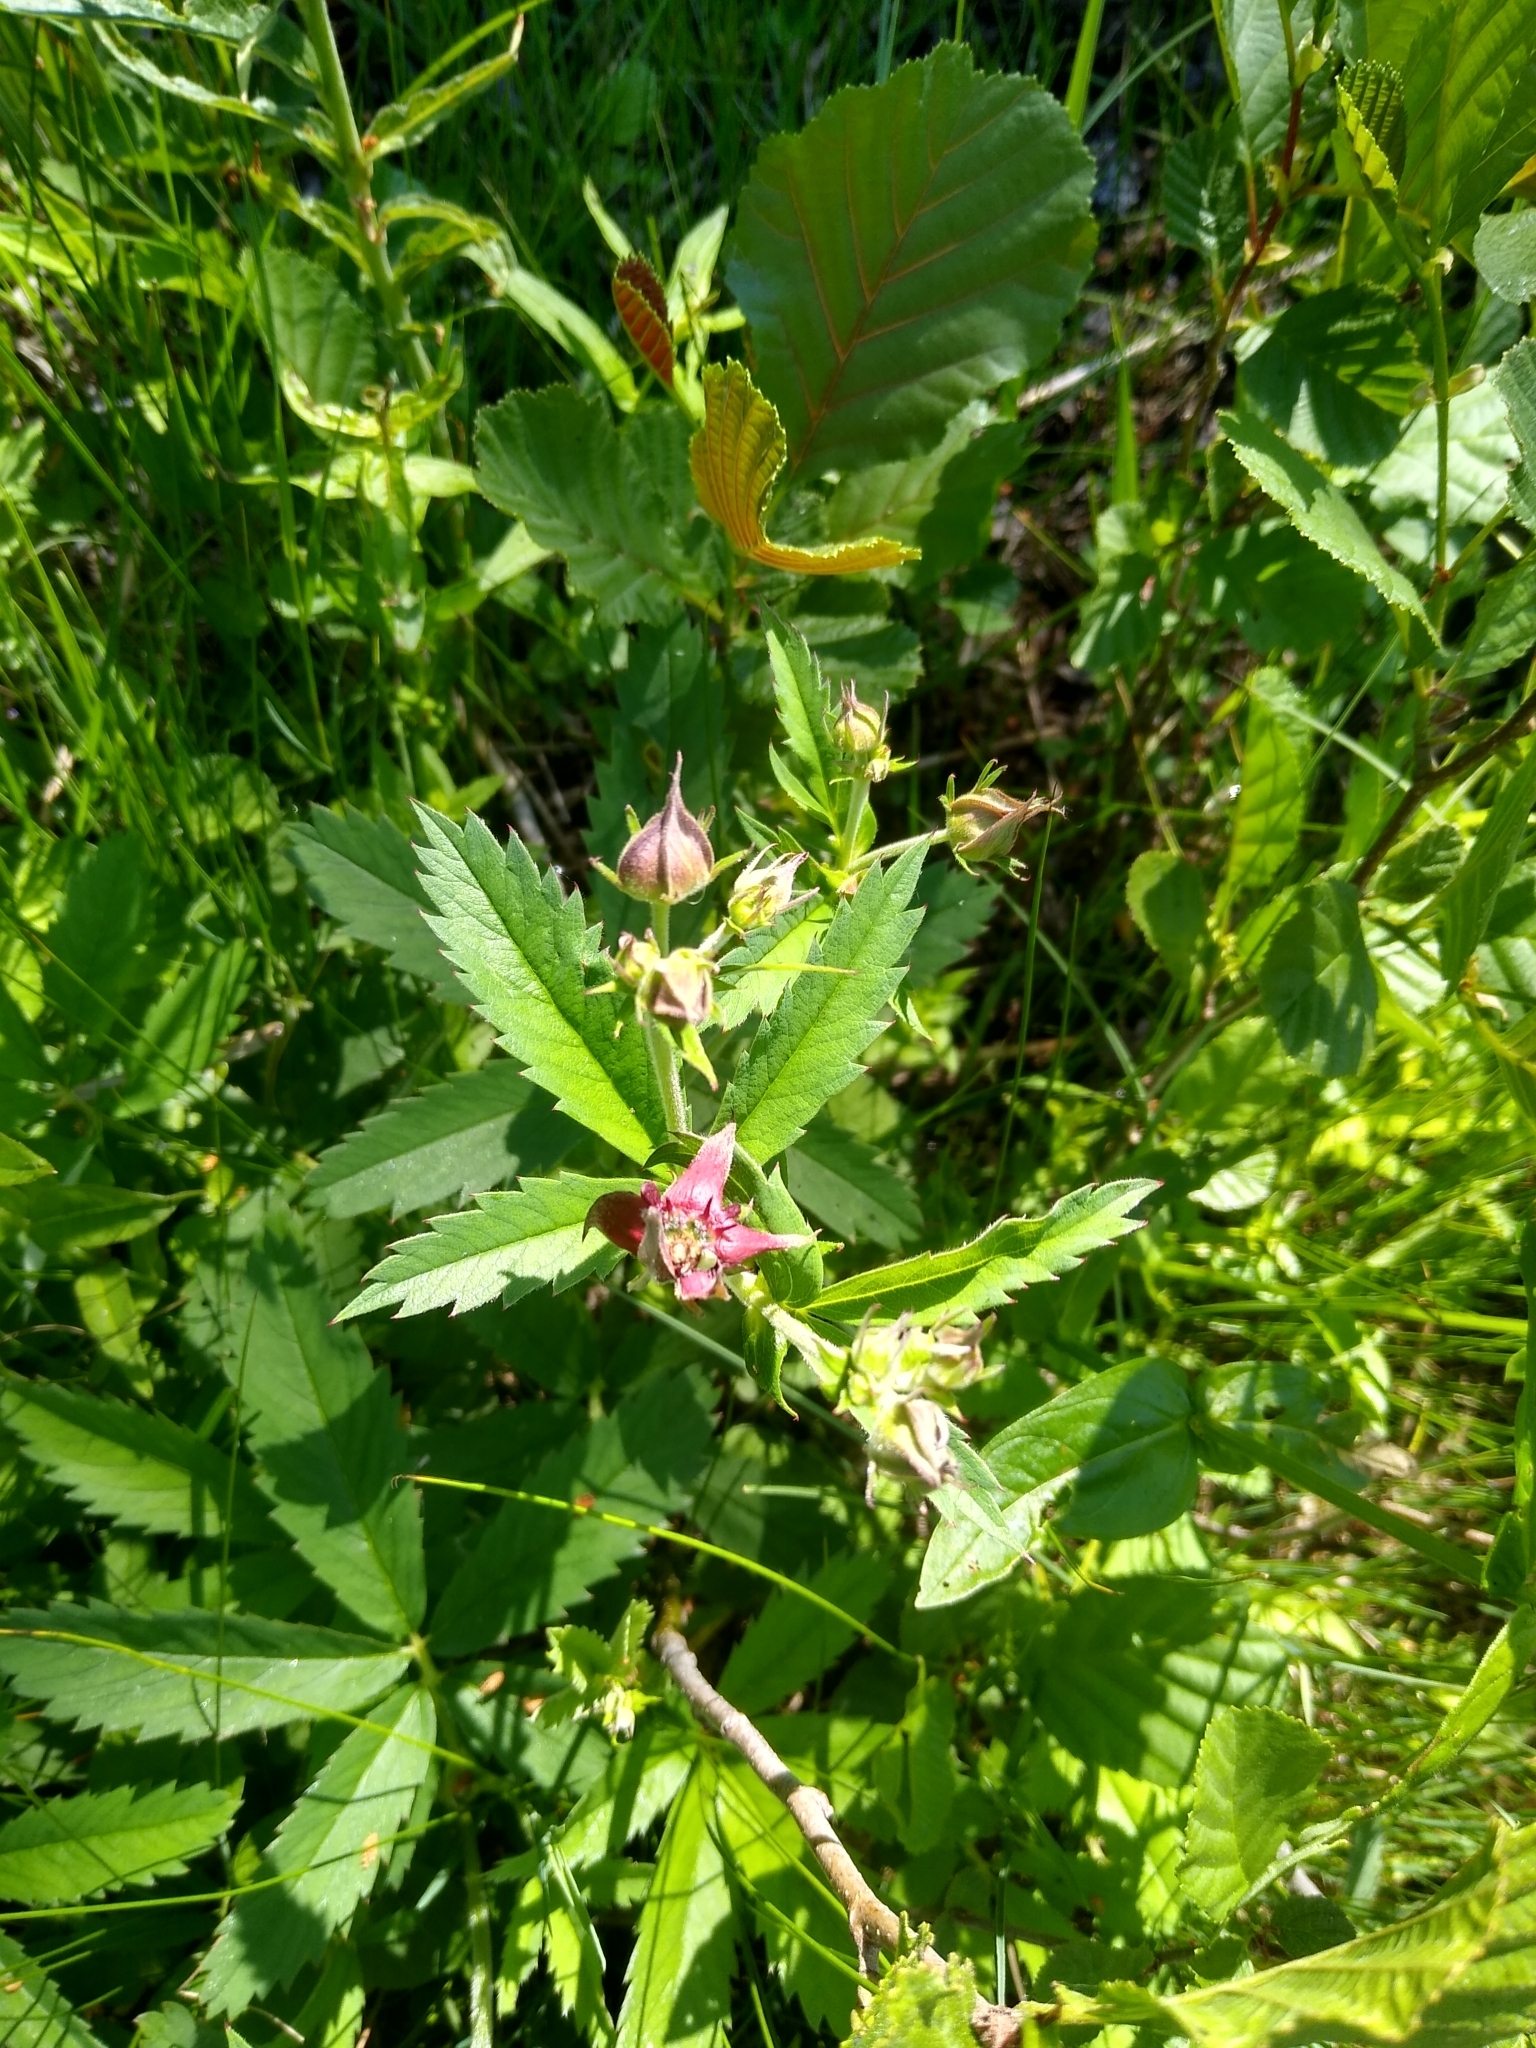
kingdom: Plantae
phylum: Tracheophyta
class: Magnoliopsida
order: Rosales
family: Rosaceae
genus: Comarum
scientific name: Comarum palustre
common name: Marsh cinquefoil
